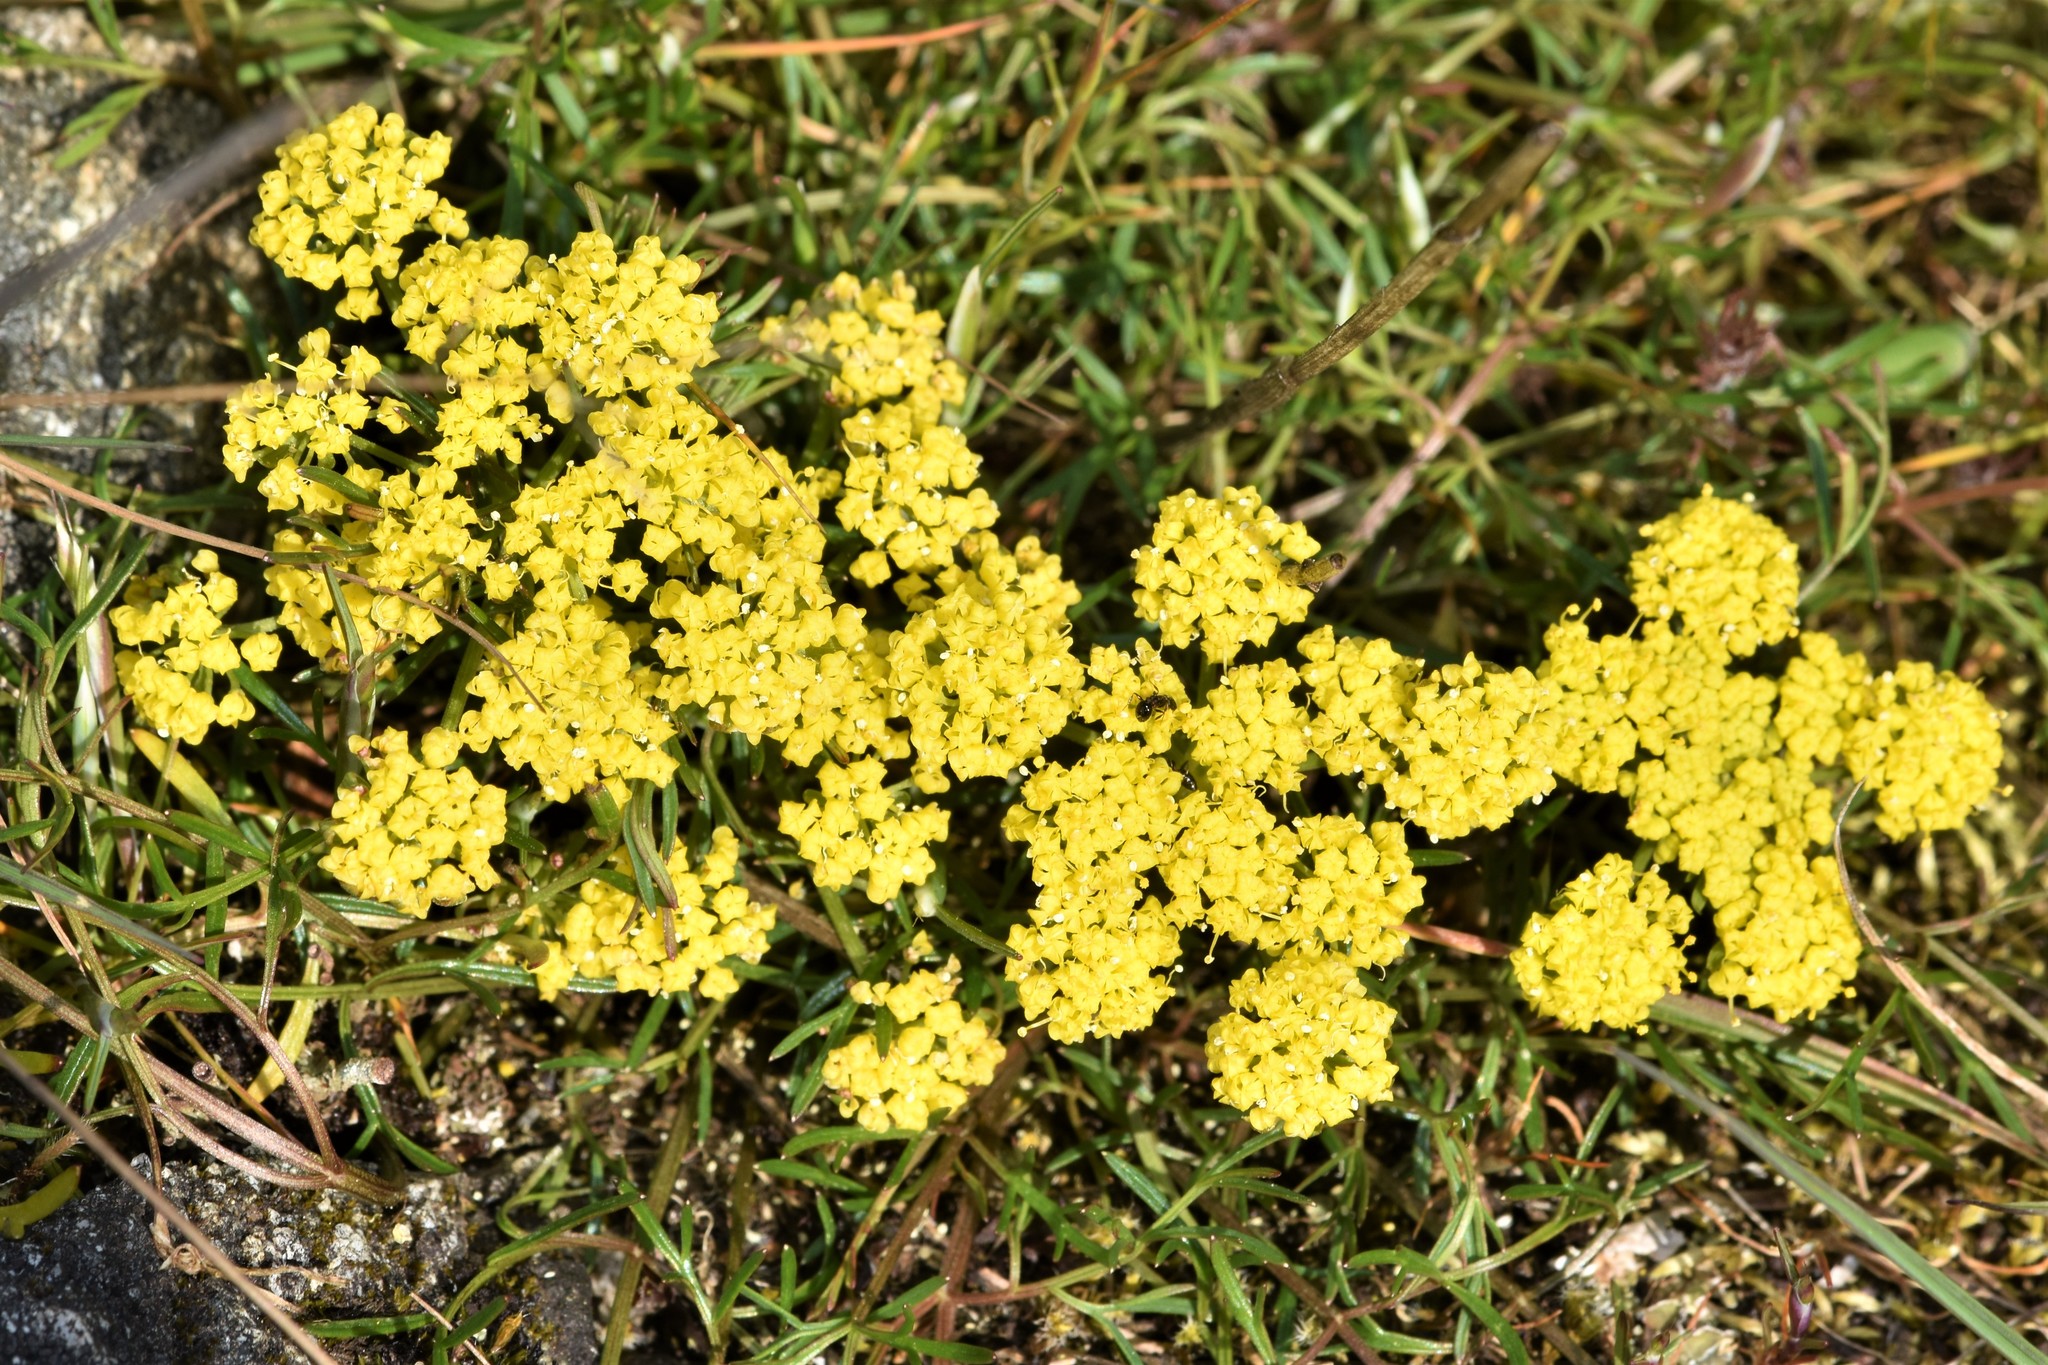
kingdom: Plantae
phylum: Tracheophyta
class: Magnoliopsida
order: Apiales
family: Apiaceae
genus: Lomatium
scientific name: Lomatium utriculatum
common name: Fine-leaf desert-parsley
